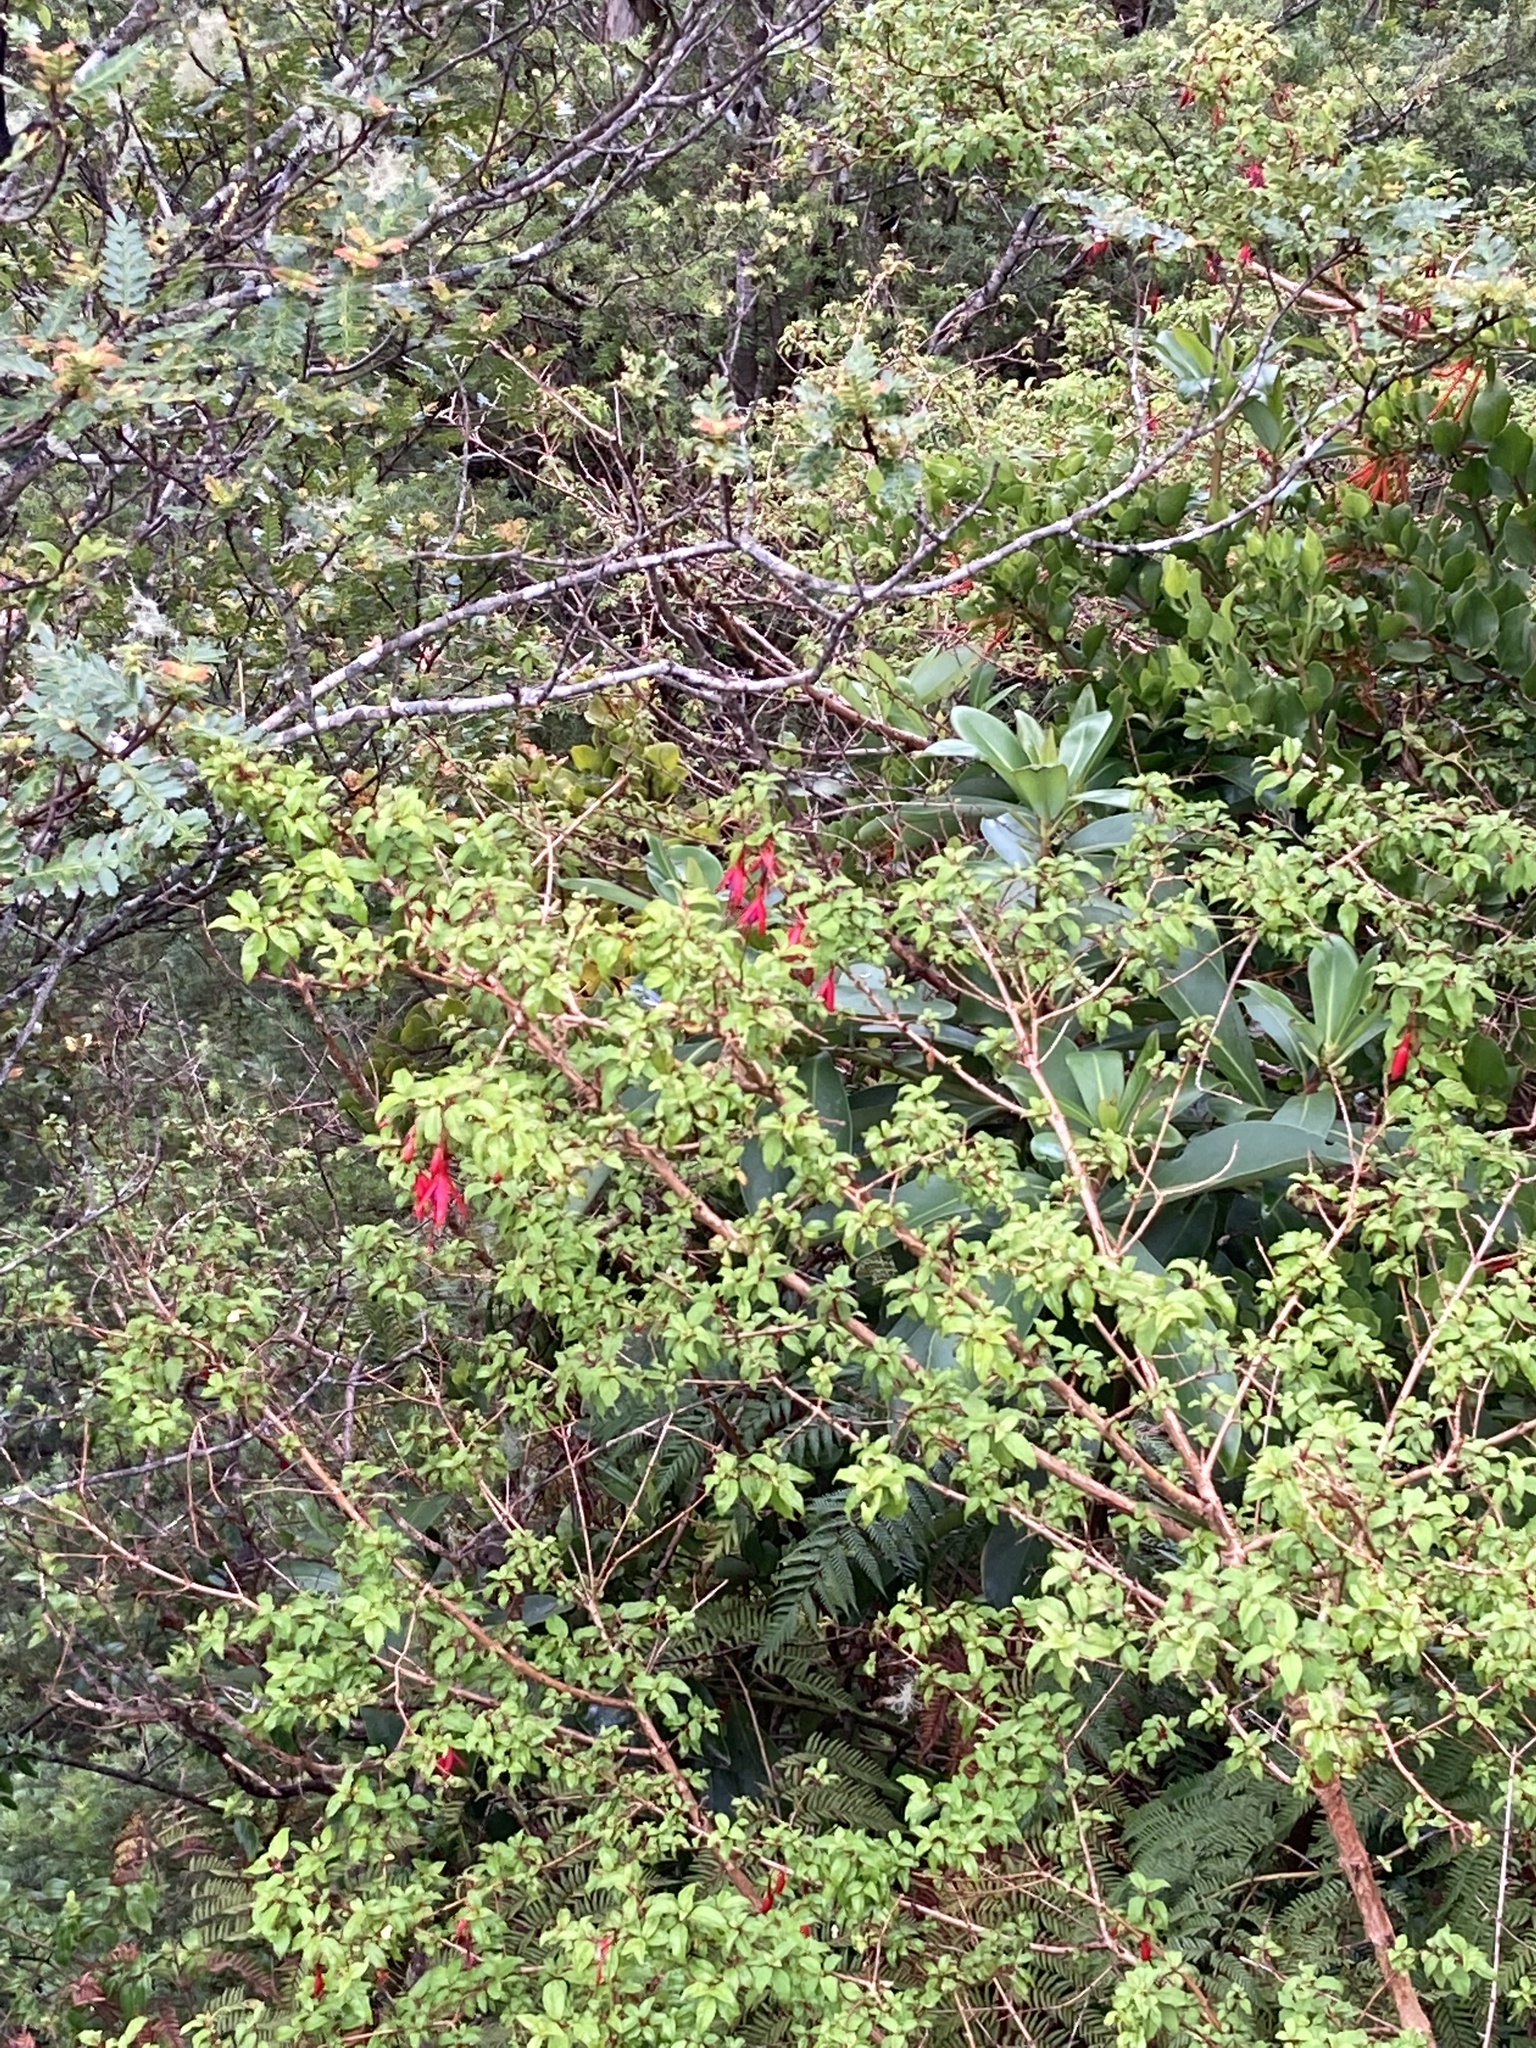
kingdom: Plantae
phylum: Tracheophyta
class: Magnoliopsida
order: Myrtales
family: Onagraceae
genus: Fuchsia
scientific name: Fuchsia magellanica
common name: Hardy fuchsia
